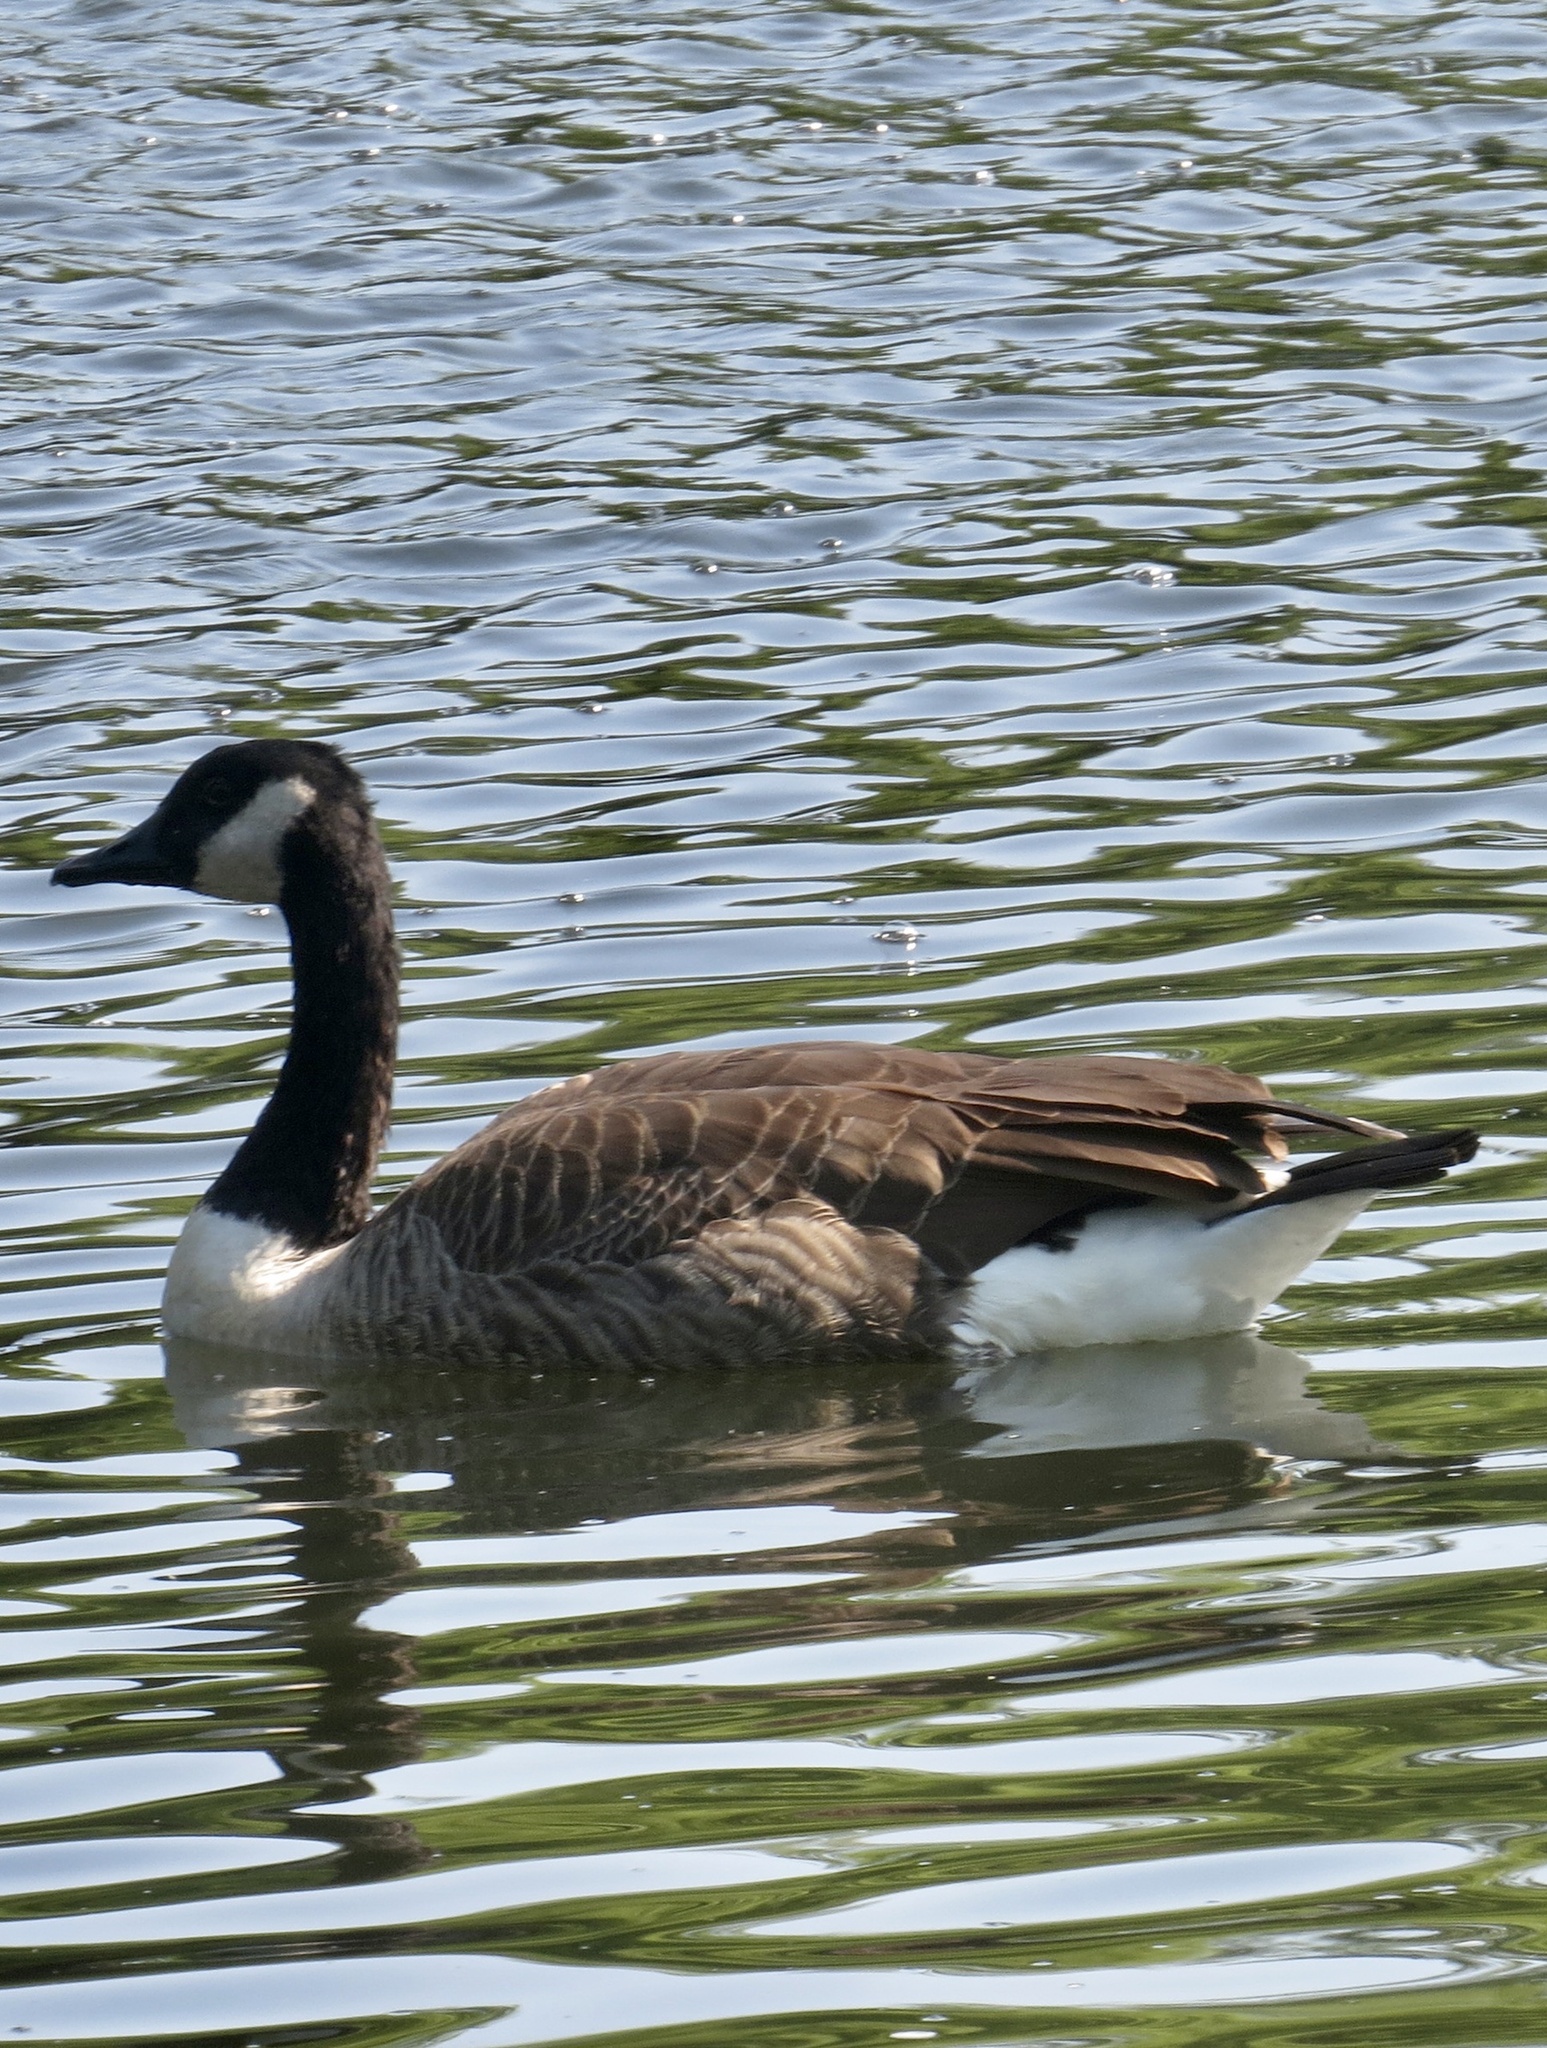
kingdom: Animalia
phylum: Chordata
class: Aves
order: Anseriformes
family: Anatidae
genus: Branta
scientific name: Branta canadensis
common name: Canada goose
